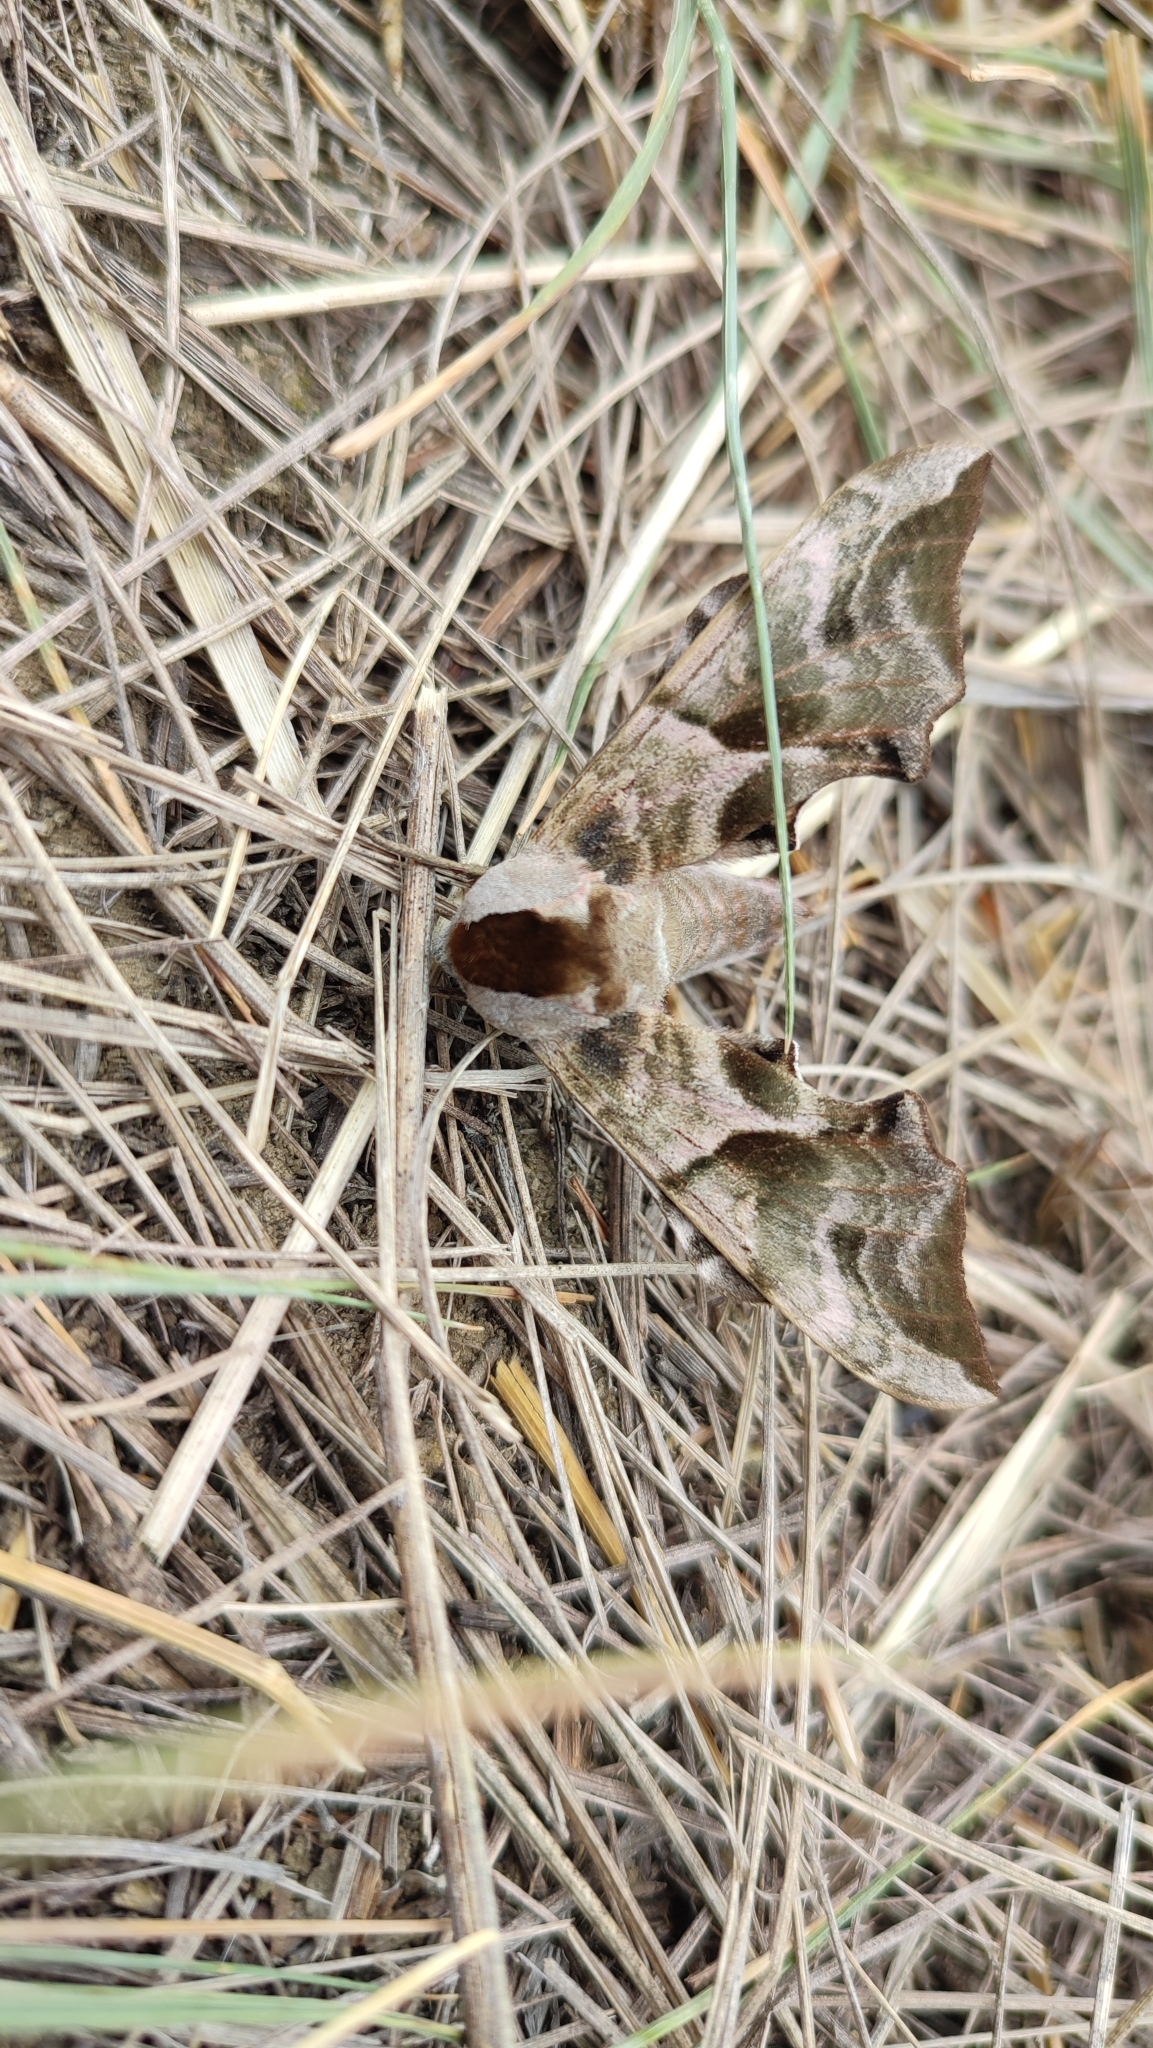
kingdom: Animalia
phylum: Arthropoda
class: Insecta
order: Lepidoptera
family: Sphingidae
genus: Smerinthus
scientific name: Smerinthus ocellata
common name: Eyed hawk-moth
